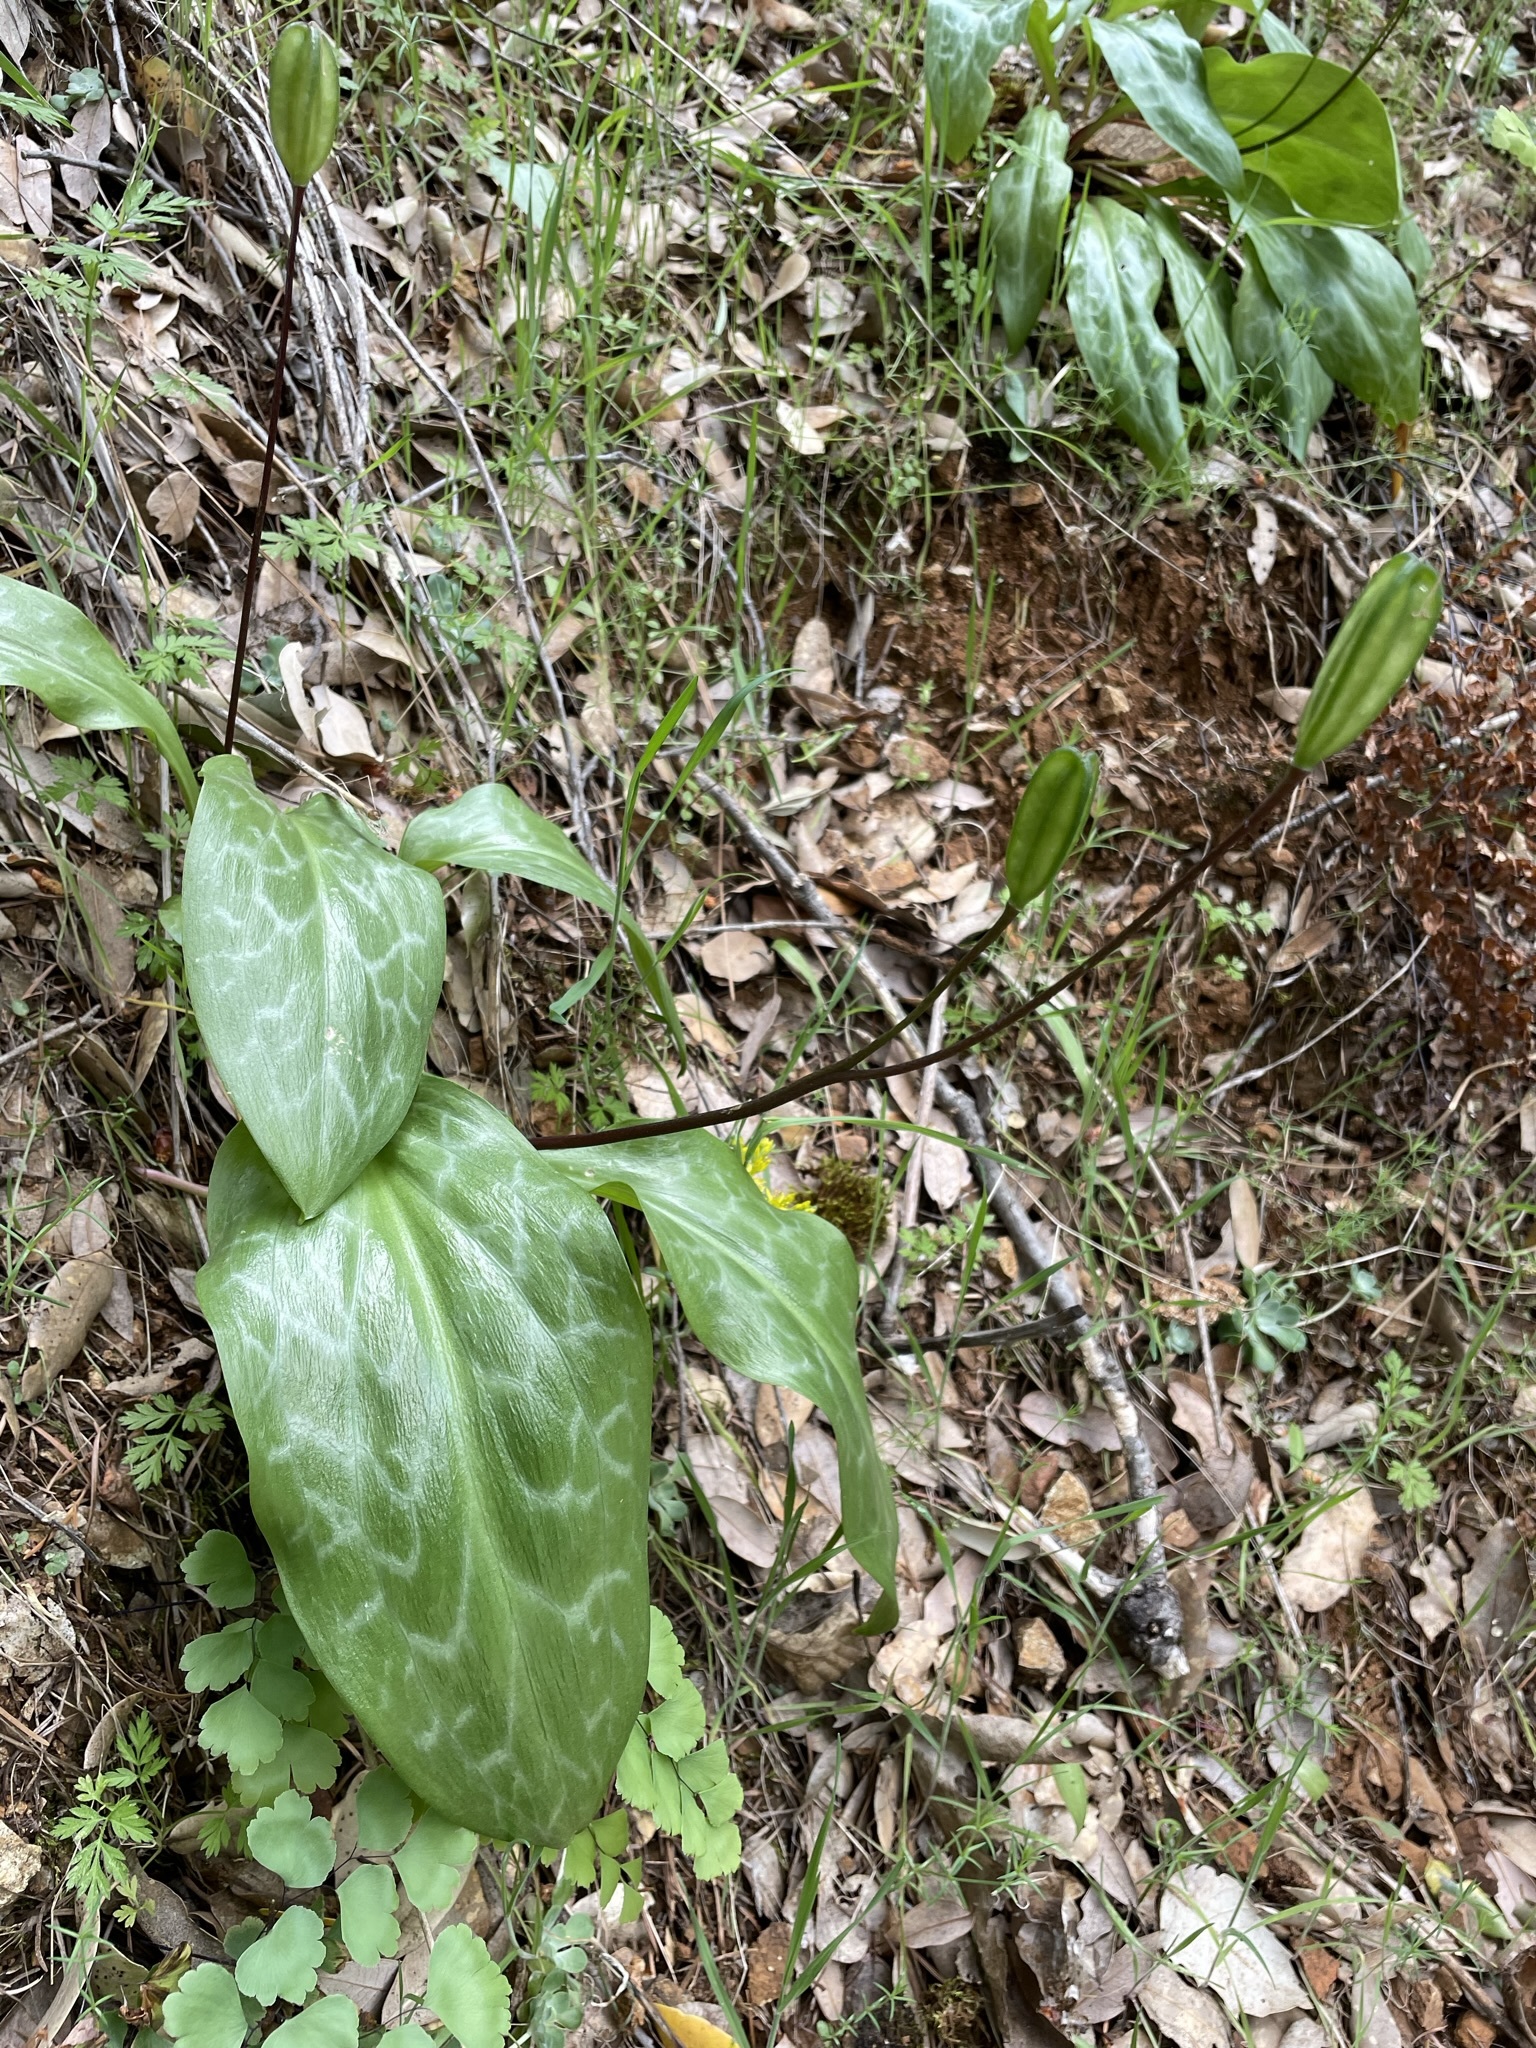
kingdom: Plantae
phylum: Tracheophyta
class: Liliopsida
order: Liliales
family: Liliaceae
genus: Erythronium
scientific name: Erythronium shastense
